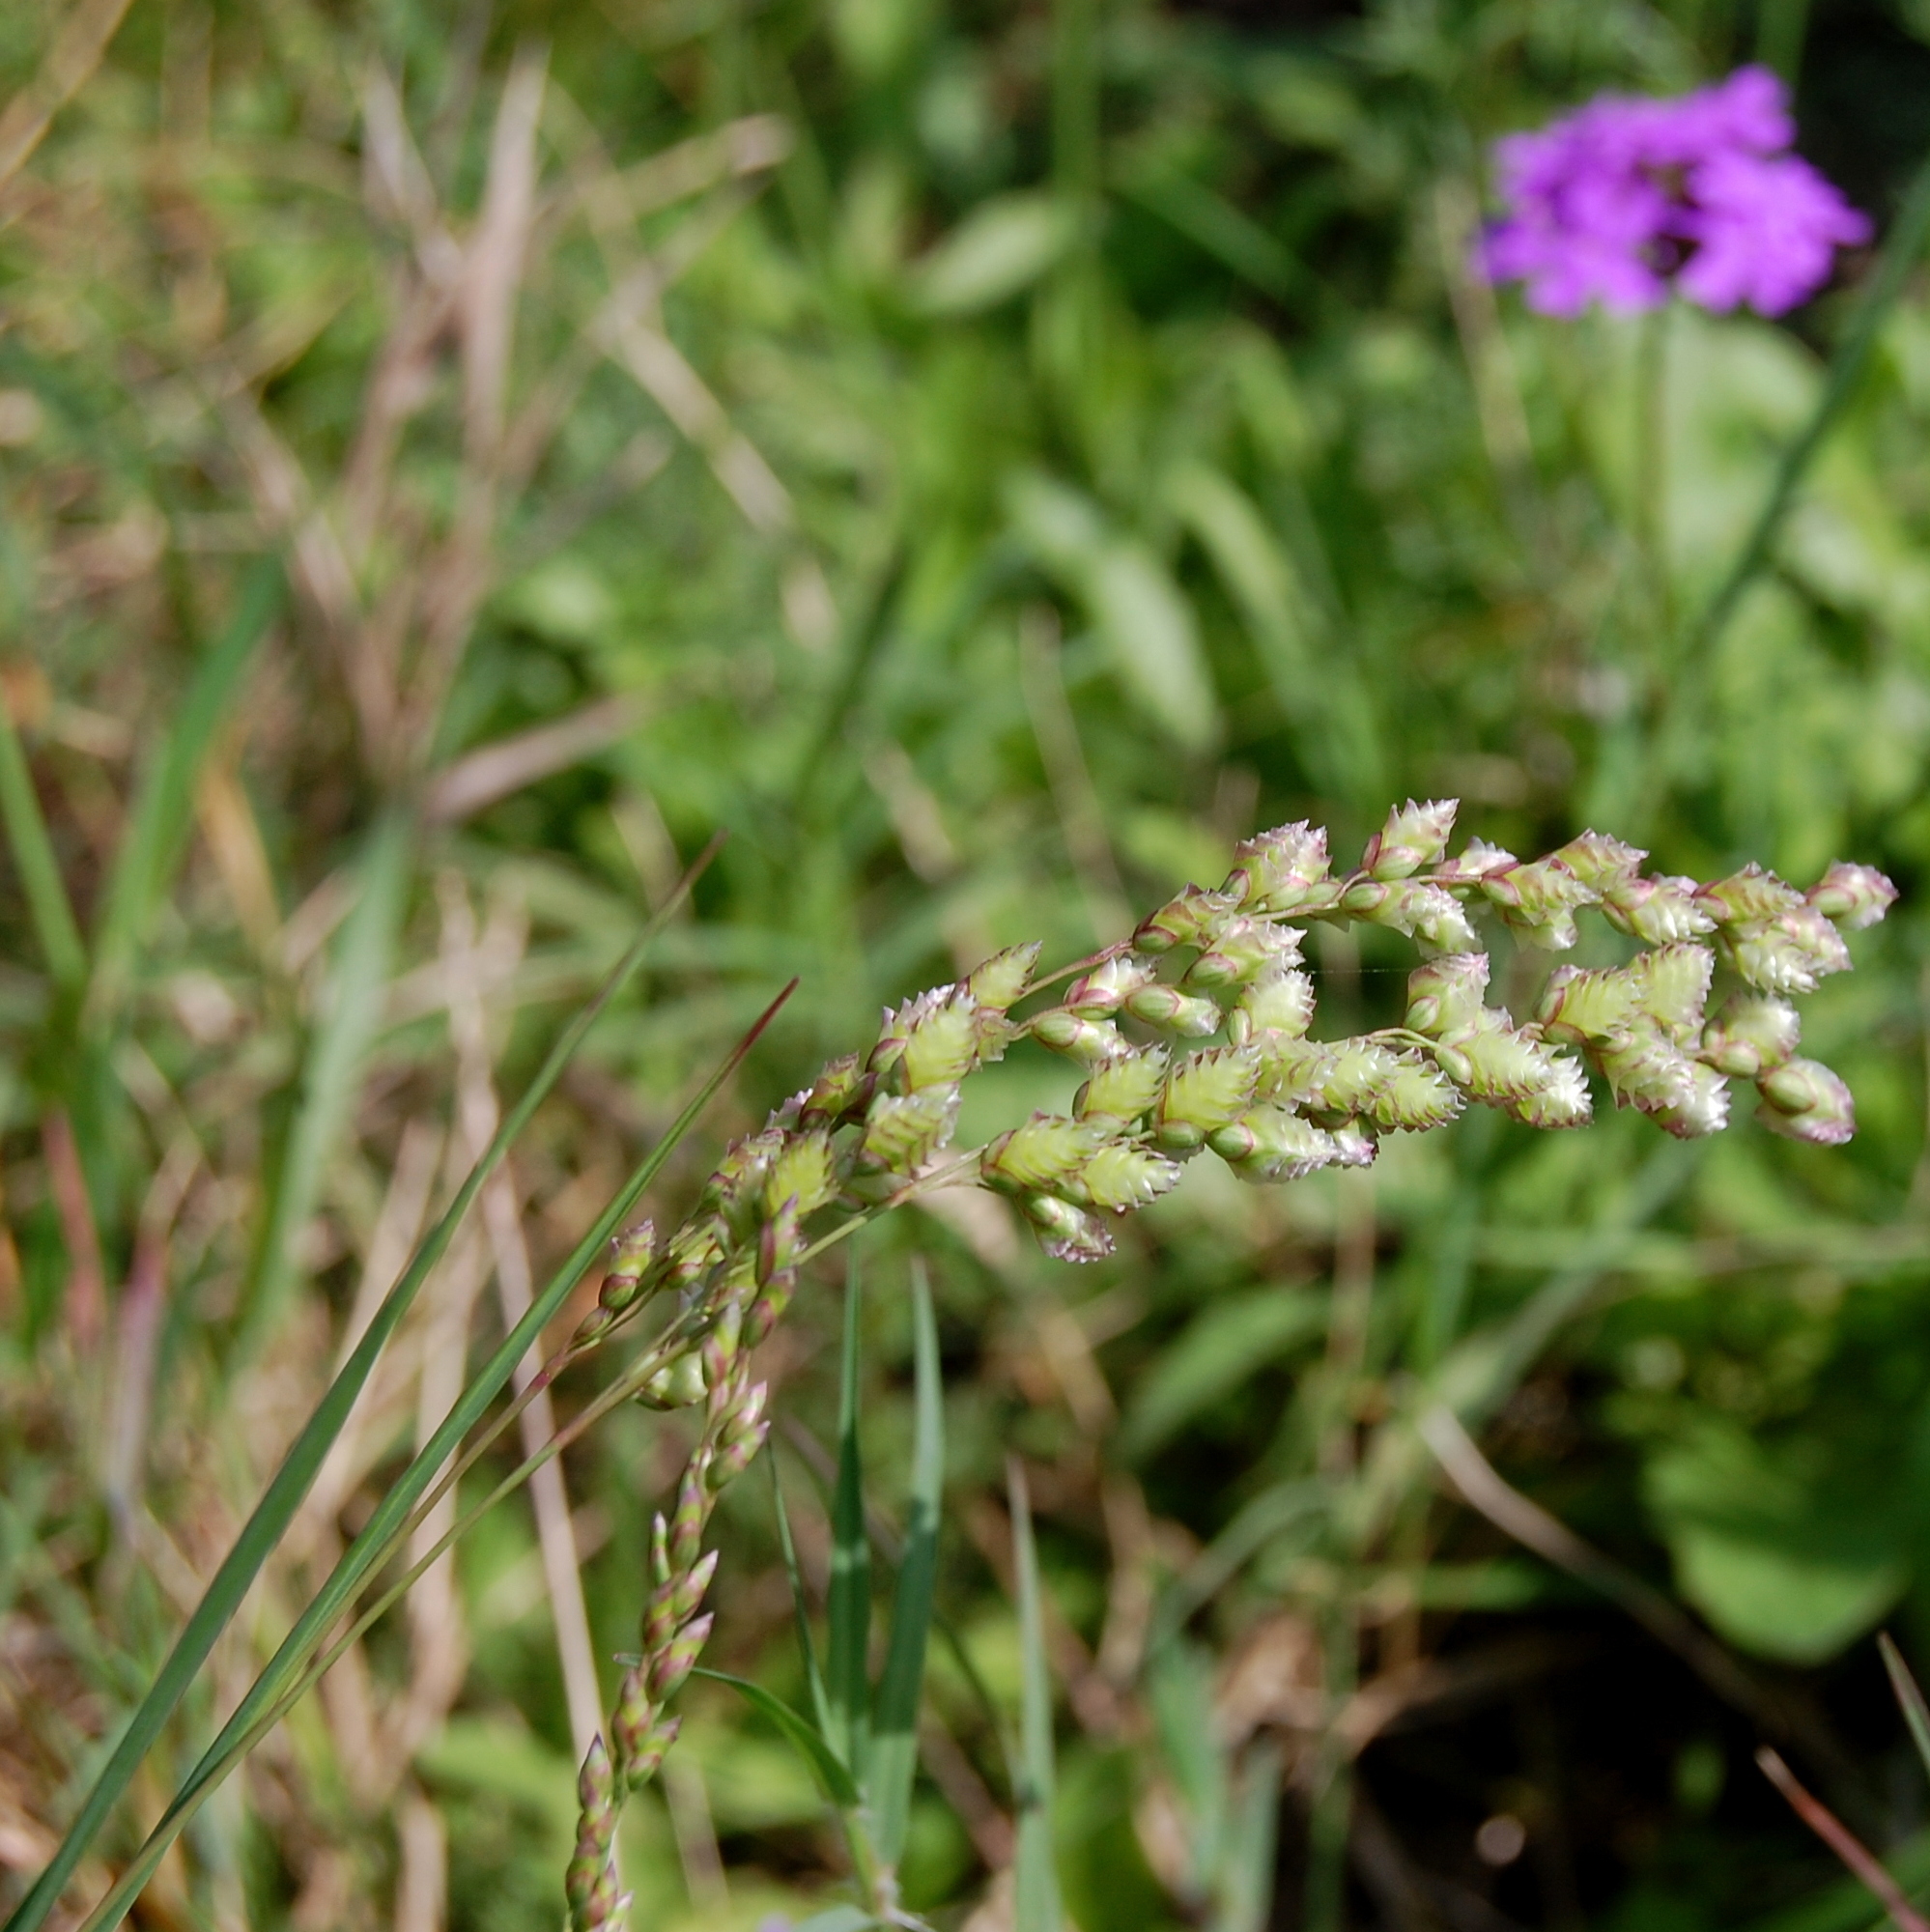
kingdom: Plantae
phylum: Tracheophyta
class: Liliopsida
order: Poales
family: Poaceae
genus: Chascolytrum
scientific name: Chascolytrum subaristatum
